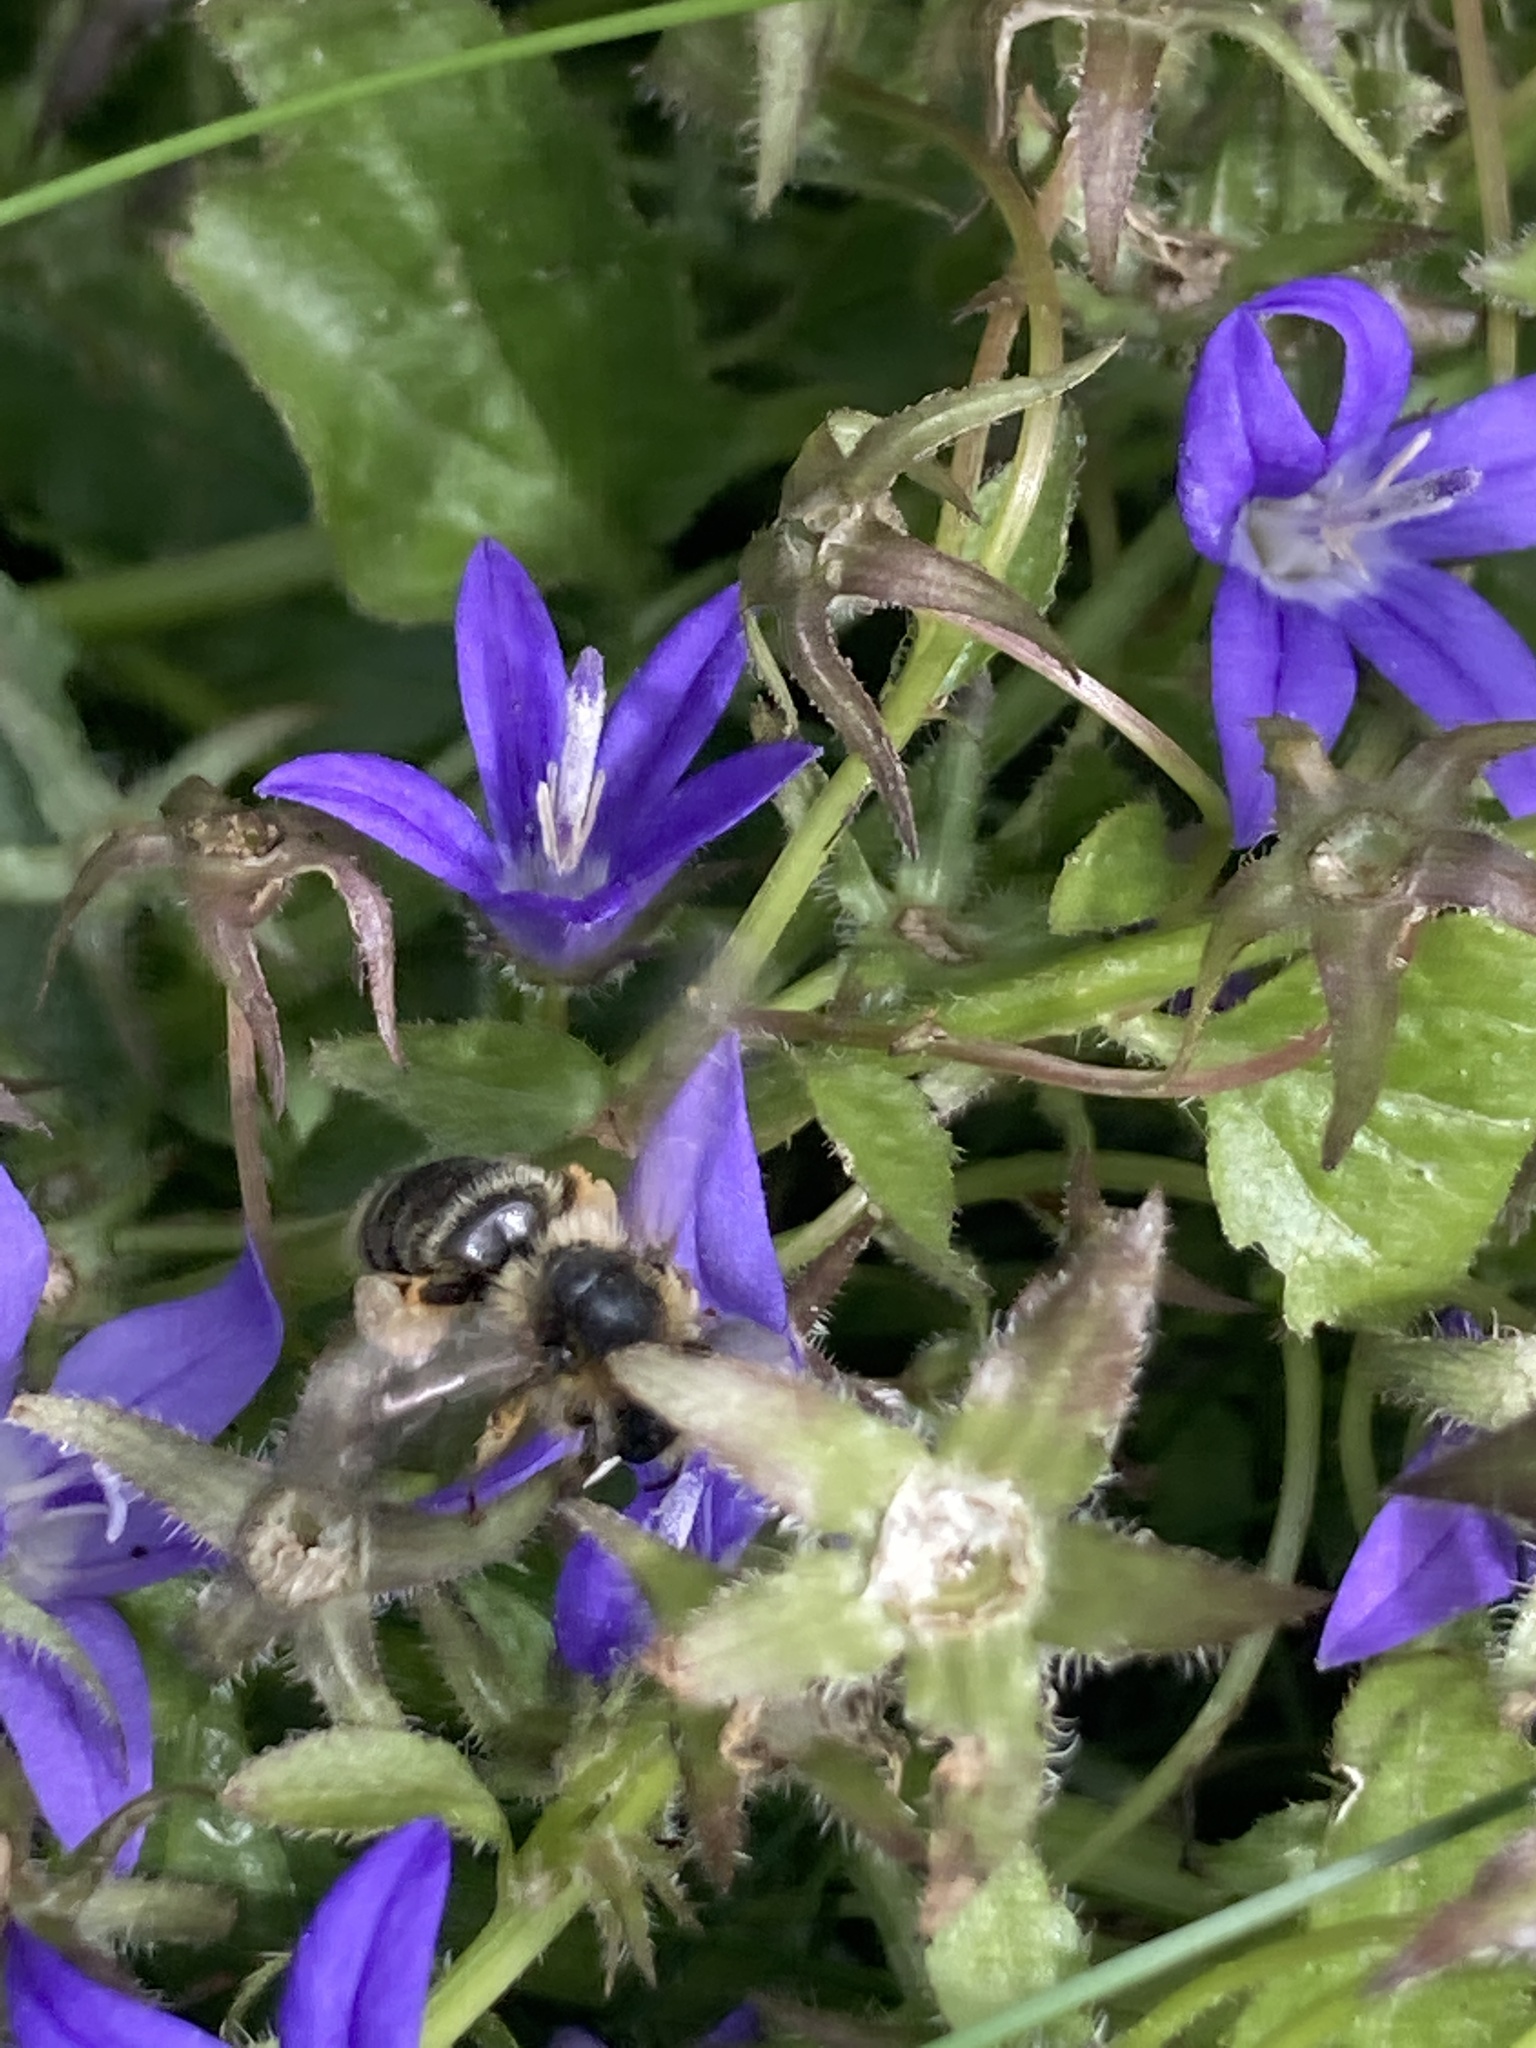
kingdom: Animalia
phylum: Arthropoda
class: Insecta
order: Hymenoptera
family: Melittidae
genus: Melitta
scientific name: Melitta haemorrhoidalis
